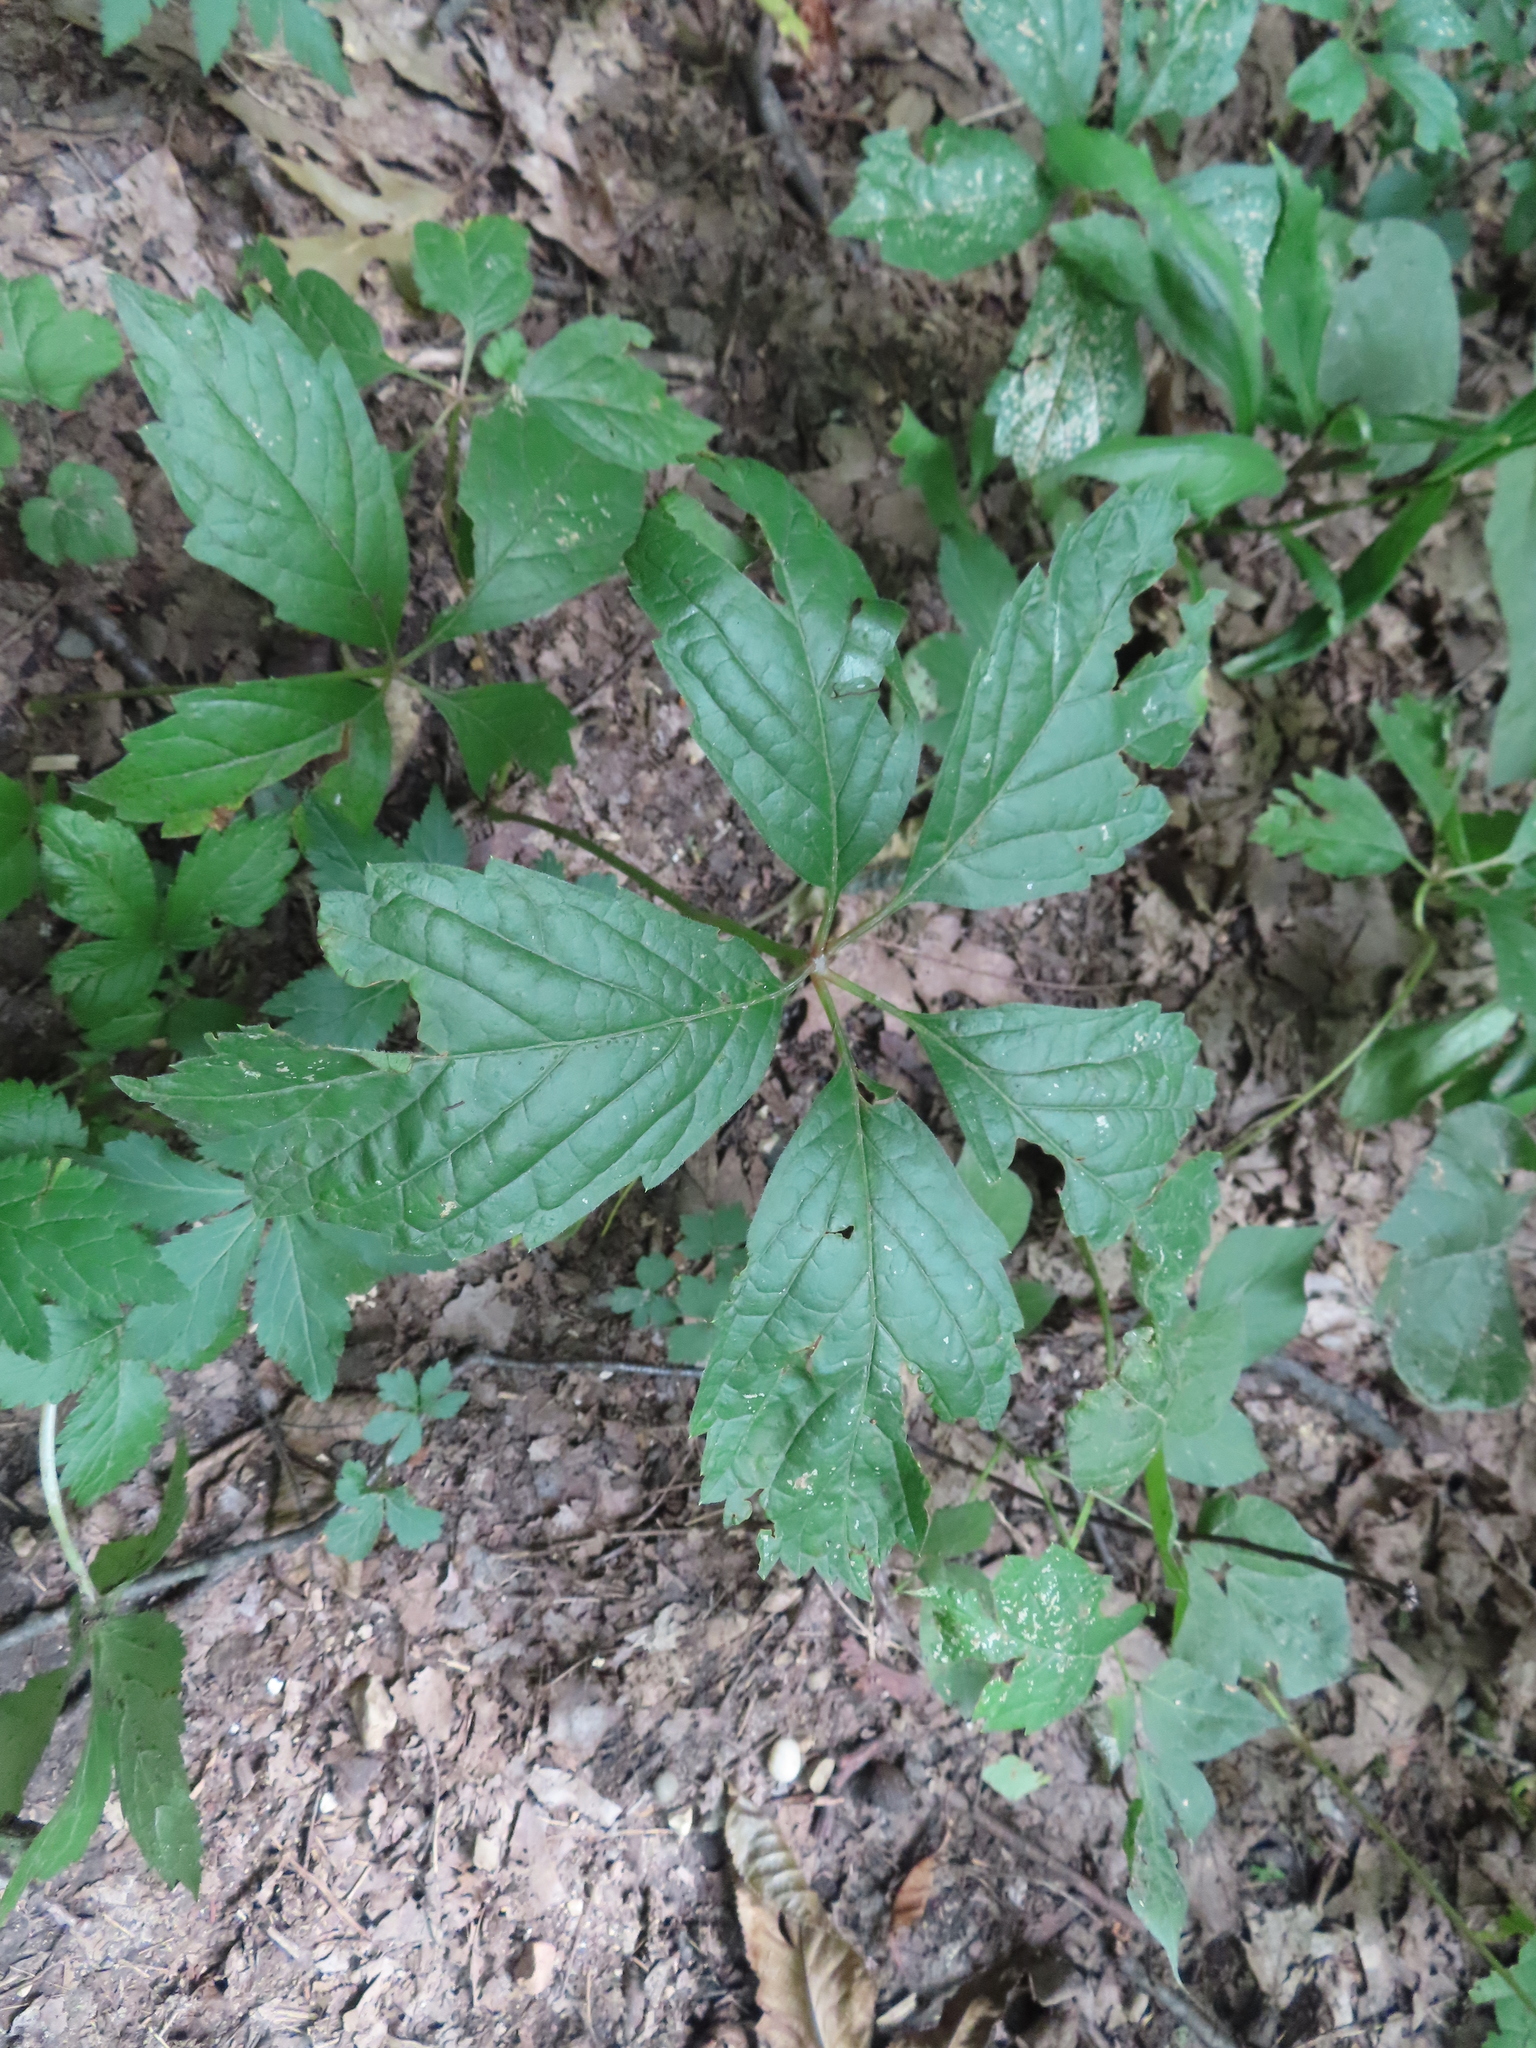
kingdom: Plantae
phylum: Tracheophyta
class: Magnoliopsida
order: Vitales
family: Vitaceae
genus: Parthenocissus
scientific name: Parthenocissus inserta
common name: False virginia-creeper
